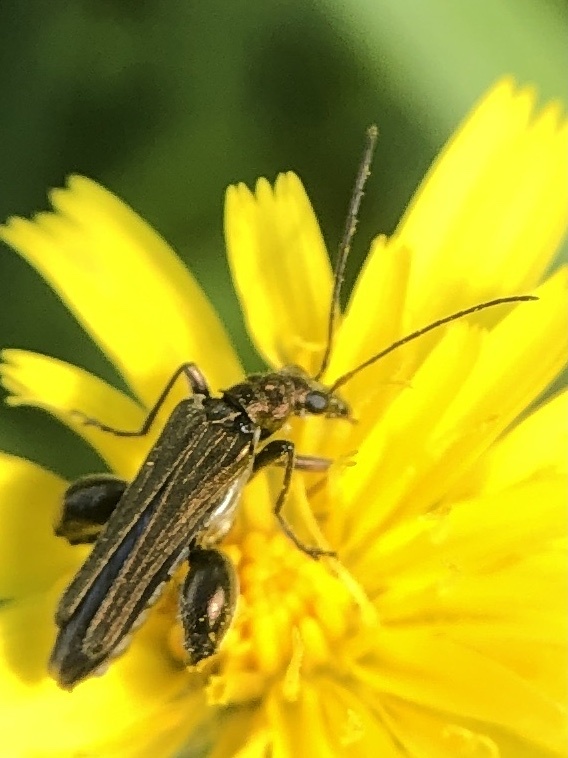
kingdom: Animalia
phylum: Arthropoda
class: Insecta
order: Coleoptera
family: Oedemeridae
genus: Oedemera
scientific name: Oedemera nobilis
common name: Swollen-thighed beetle
